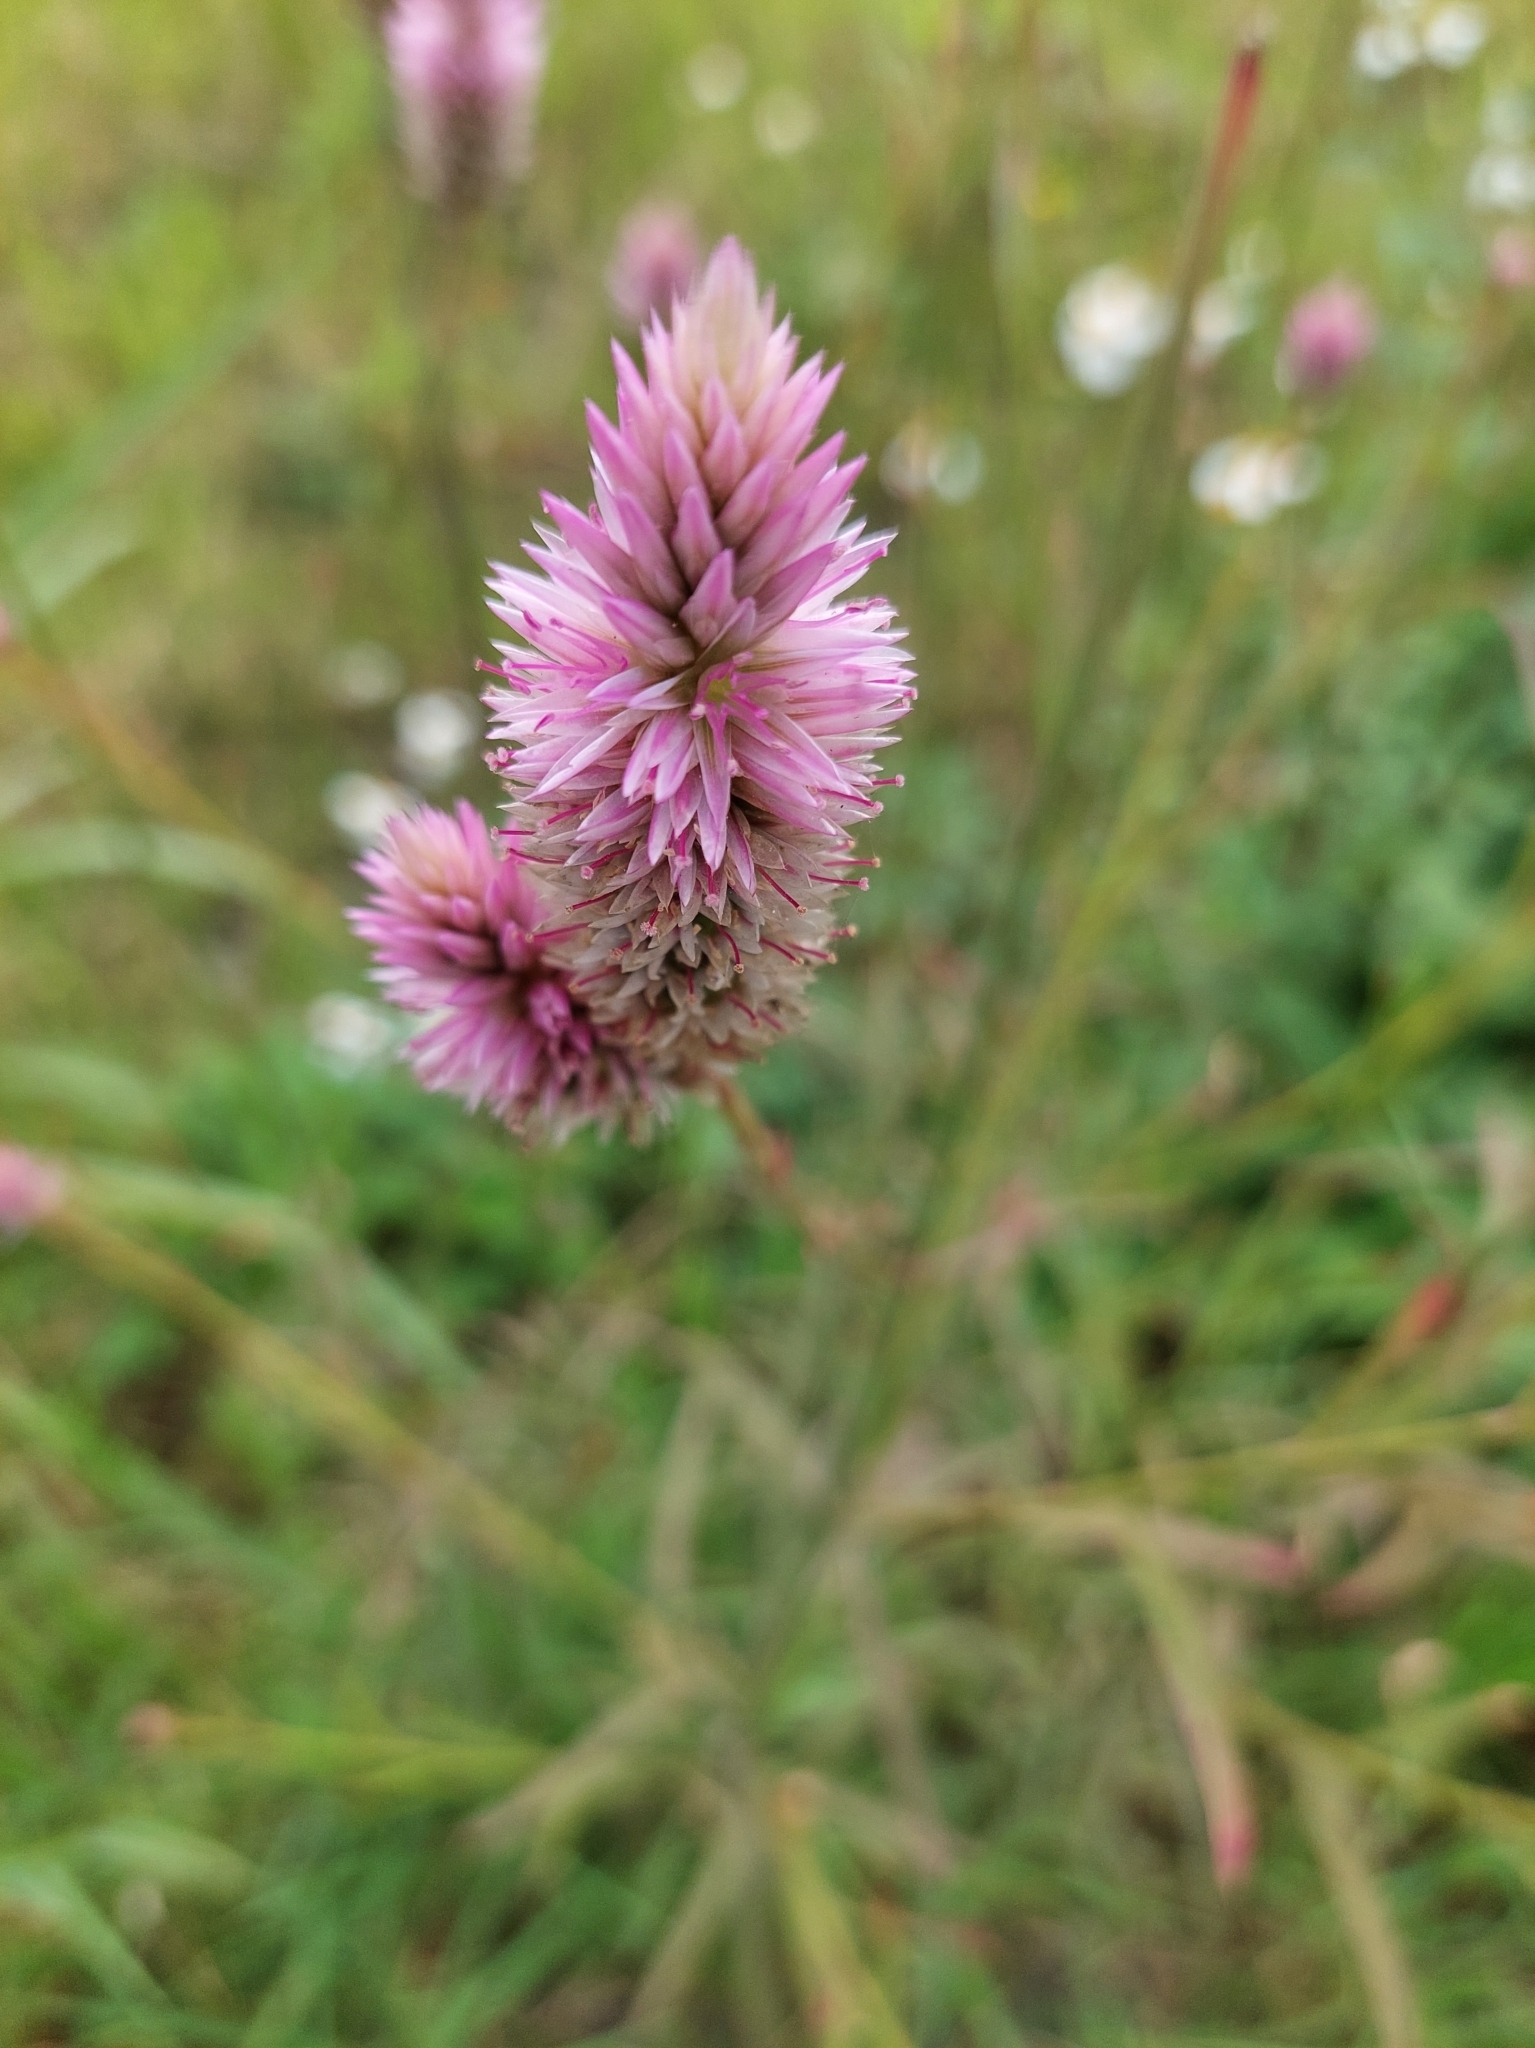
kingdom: Plantae
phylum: Tracheophyta
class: Magnoliopsida
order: Caryophyllales
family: Amaranthaceae
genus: Celosia
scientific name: Celosia argentea
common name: Feather cockscomb
